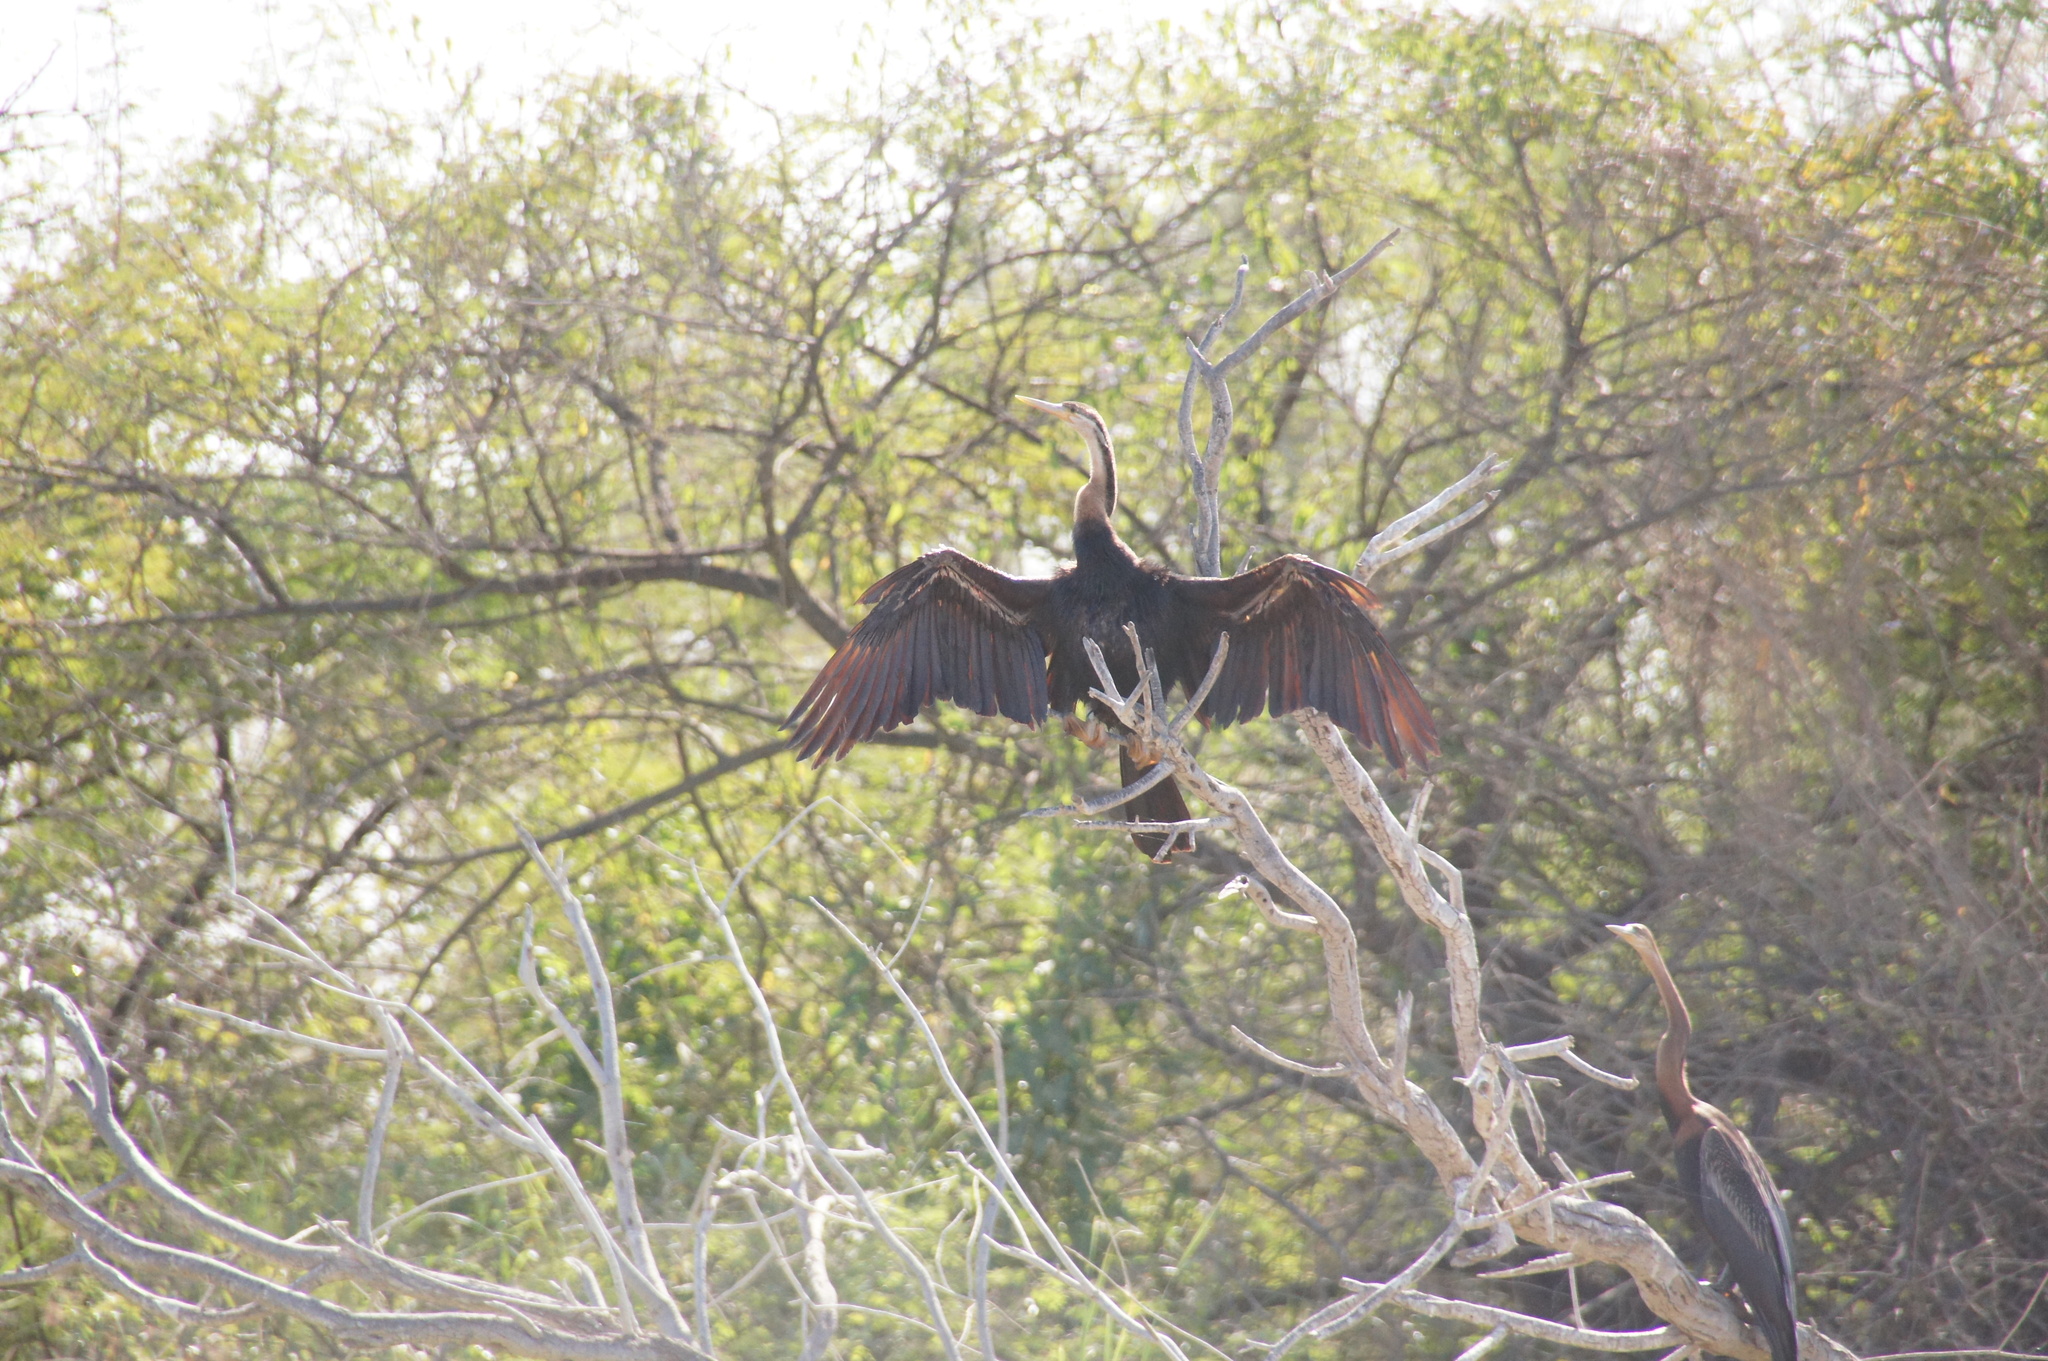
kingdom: Animalia
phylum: Chordata
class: Aves
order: Suliformes
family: Anhingidae
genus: Anhinga
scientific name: Anhinga rufa
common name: African darter
